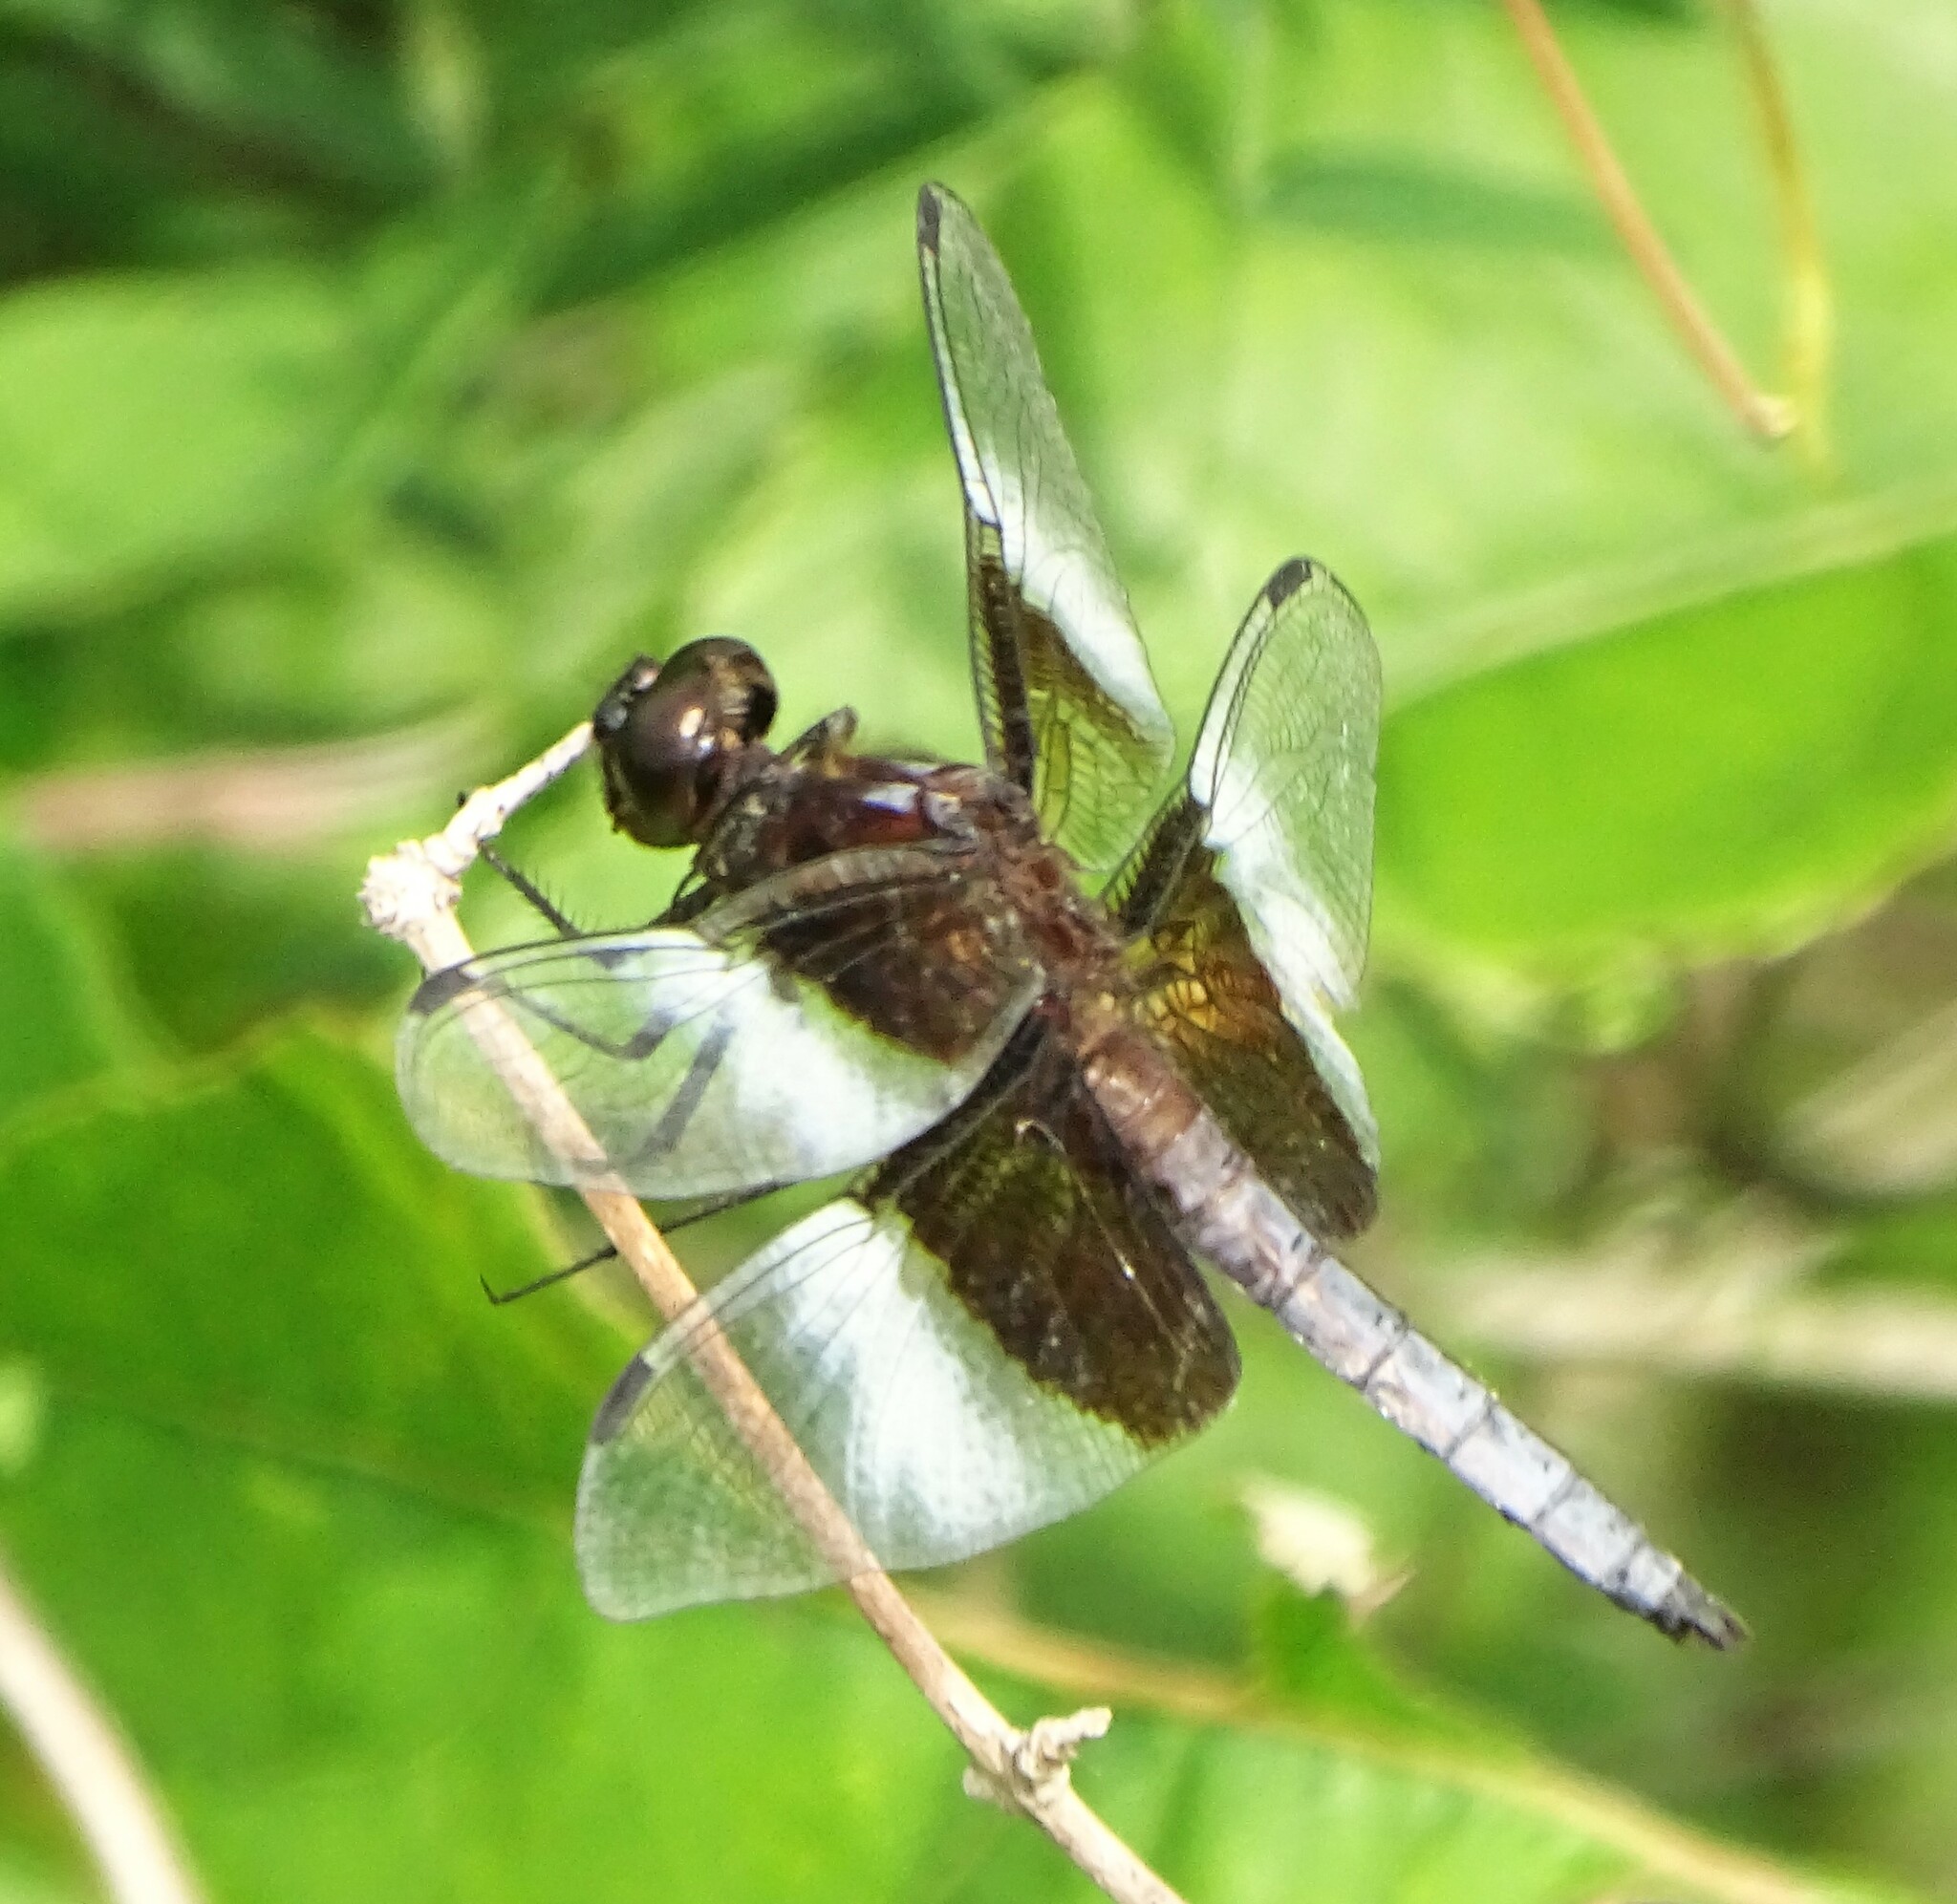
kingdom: Animalia
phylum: Arthropoda
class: Insecta
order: Odonata
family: Libellulidae
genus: Libellula
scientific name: Libellula luctuosa
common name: Widow skimmer
